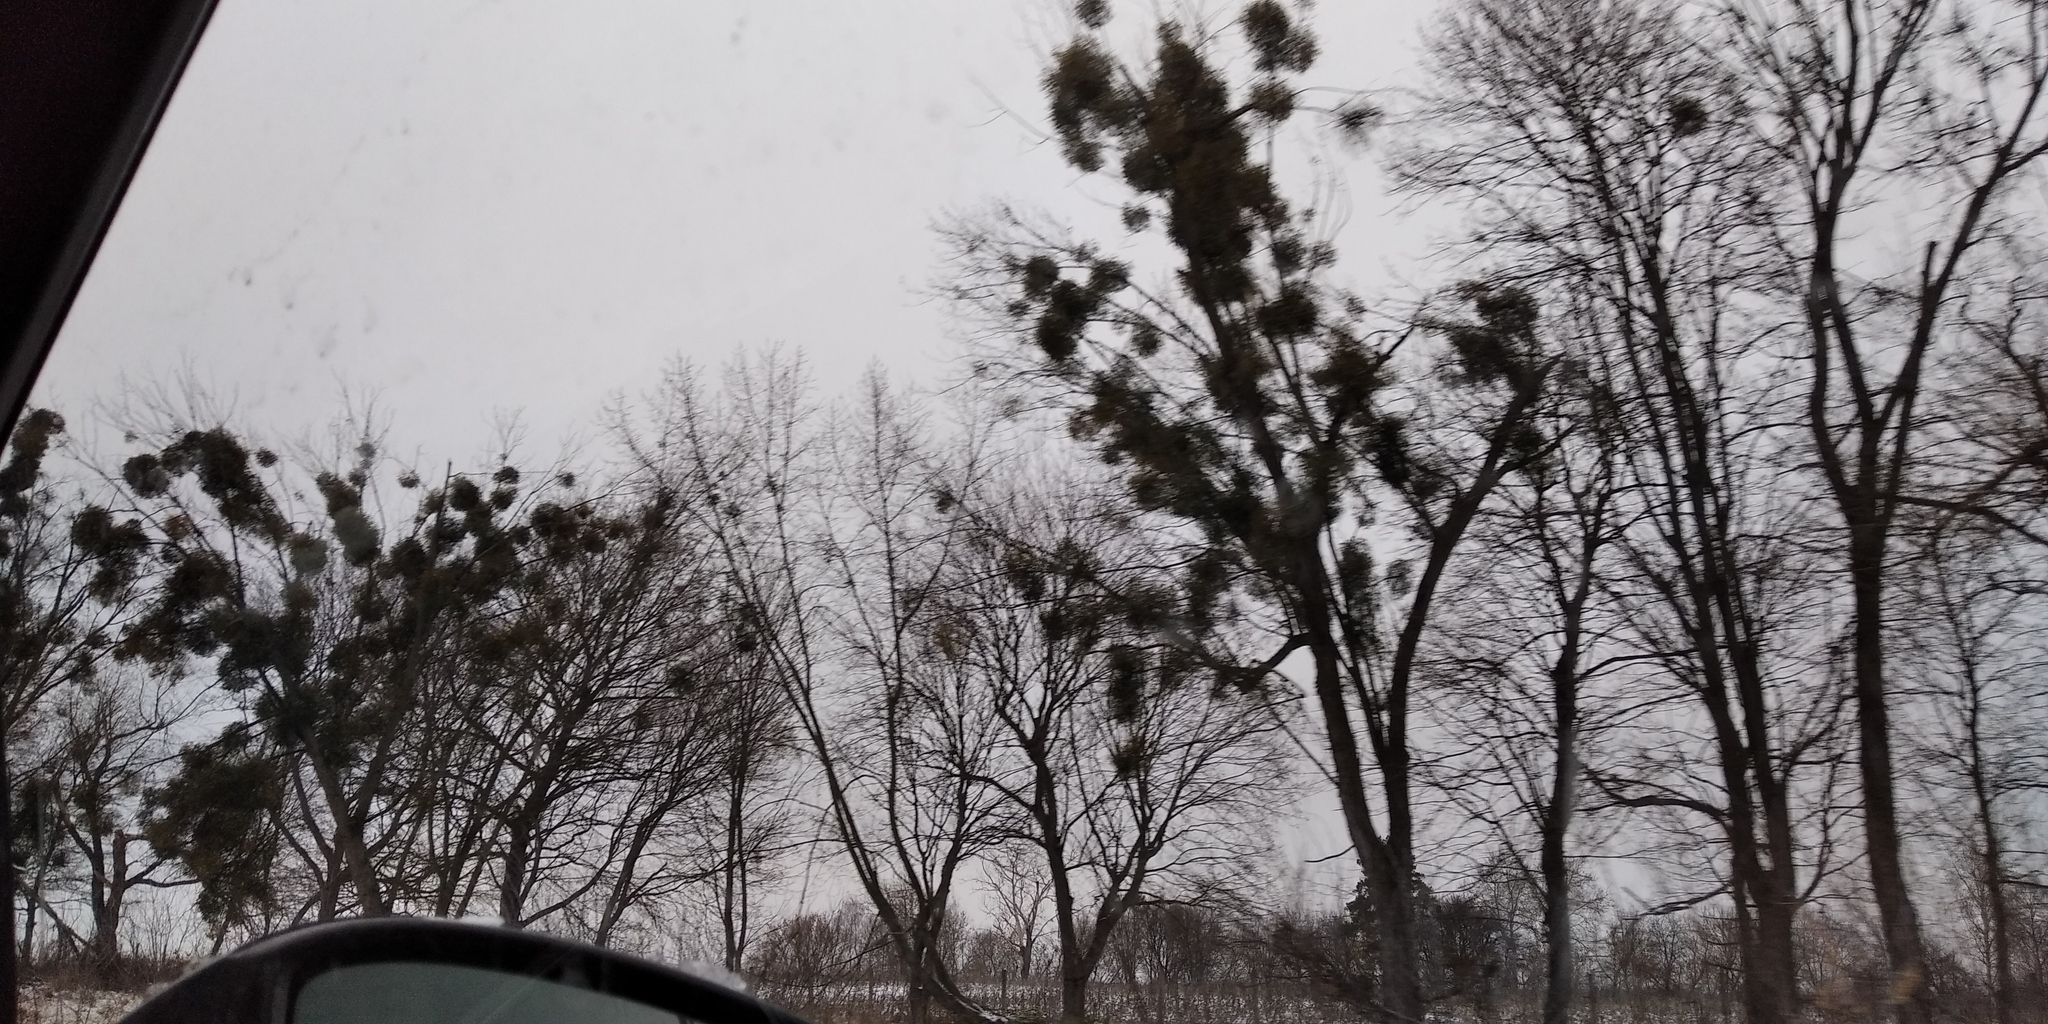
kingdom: Plantae
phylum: Tracheophyta
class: Magnoliopsida
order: Santalales
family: Viscaceae
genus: Viscum
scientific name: Viscum album
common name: Mistletoe
